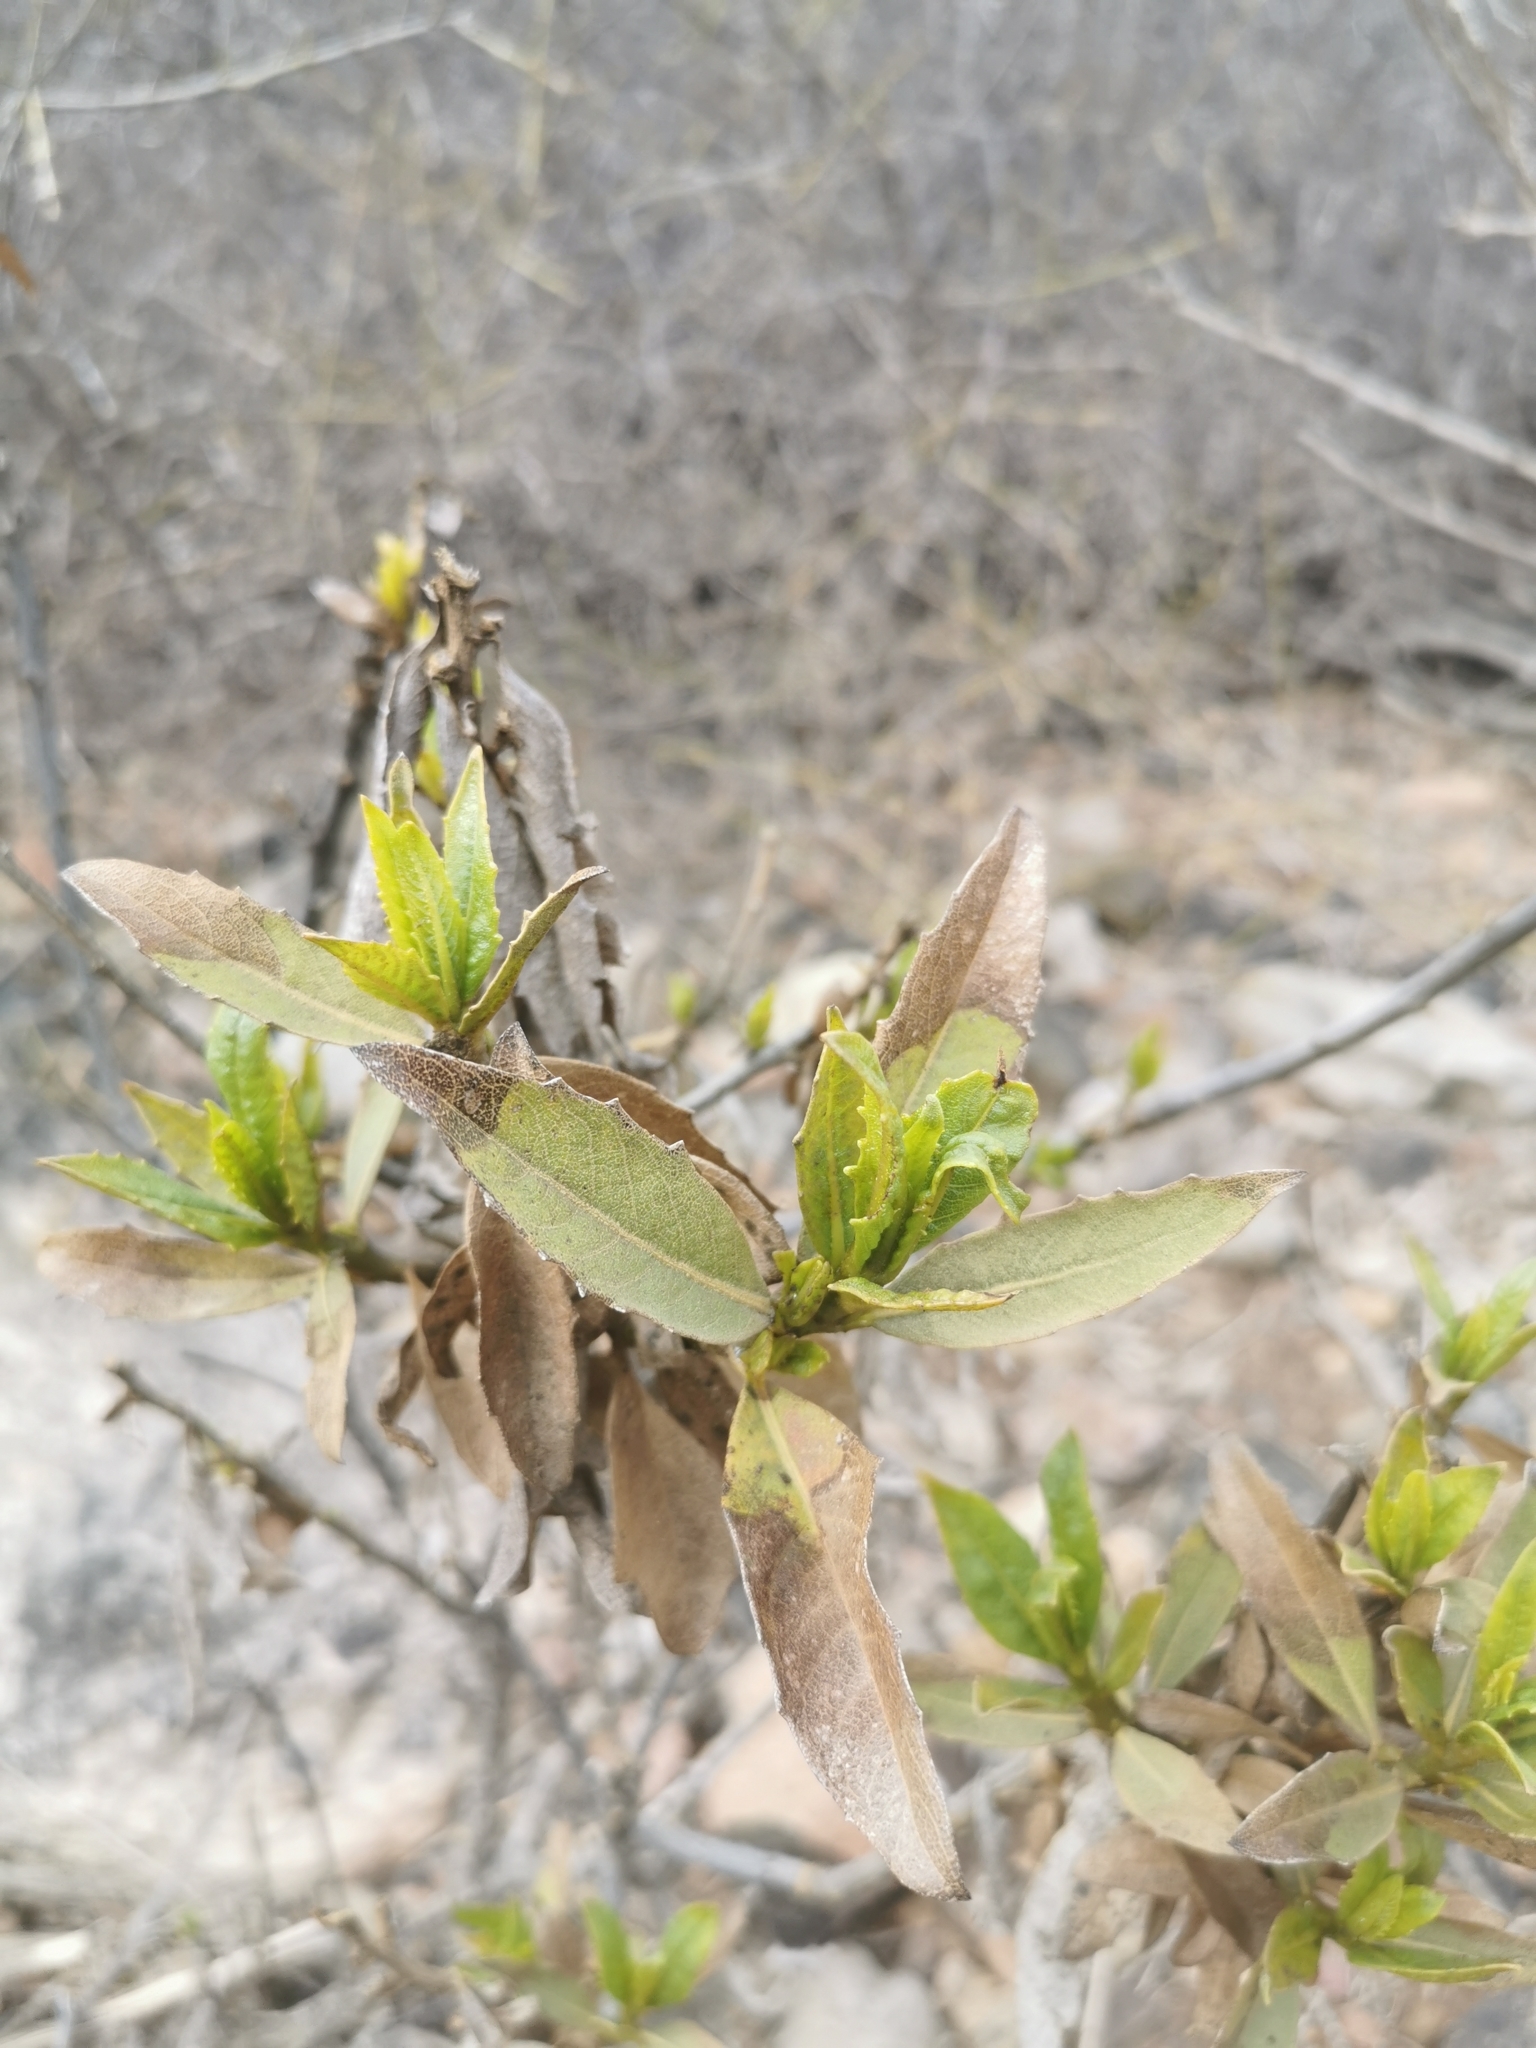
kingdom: Plantae
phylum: Tracheophyta
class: Magnoliopsida
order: Asterales
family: Asteraceae
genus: Flourensia
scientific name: Flourensia thurifera
